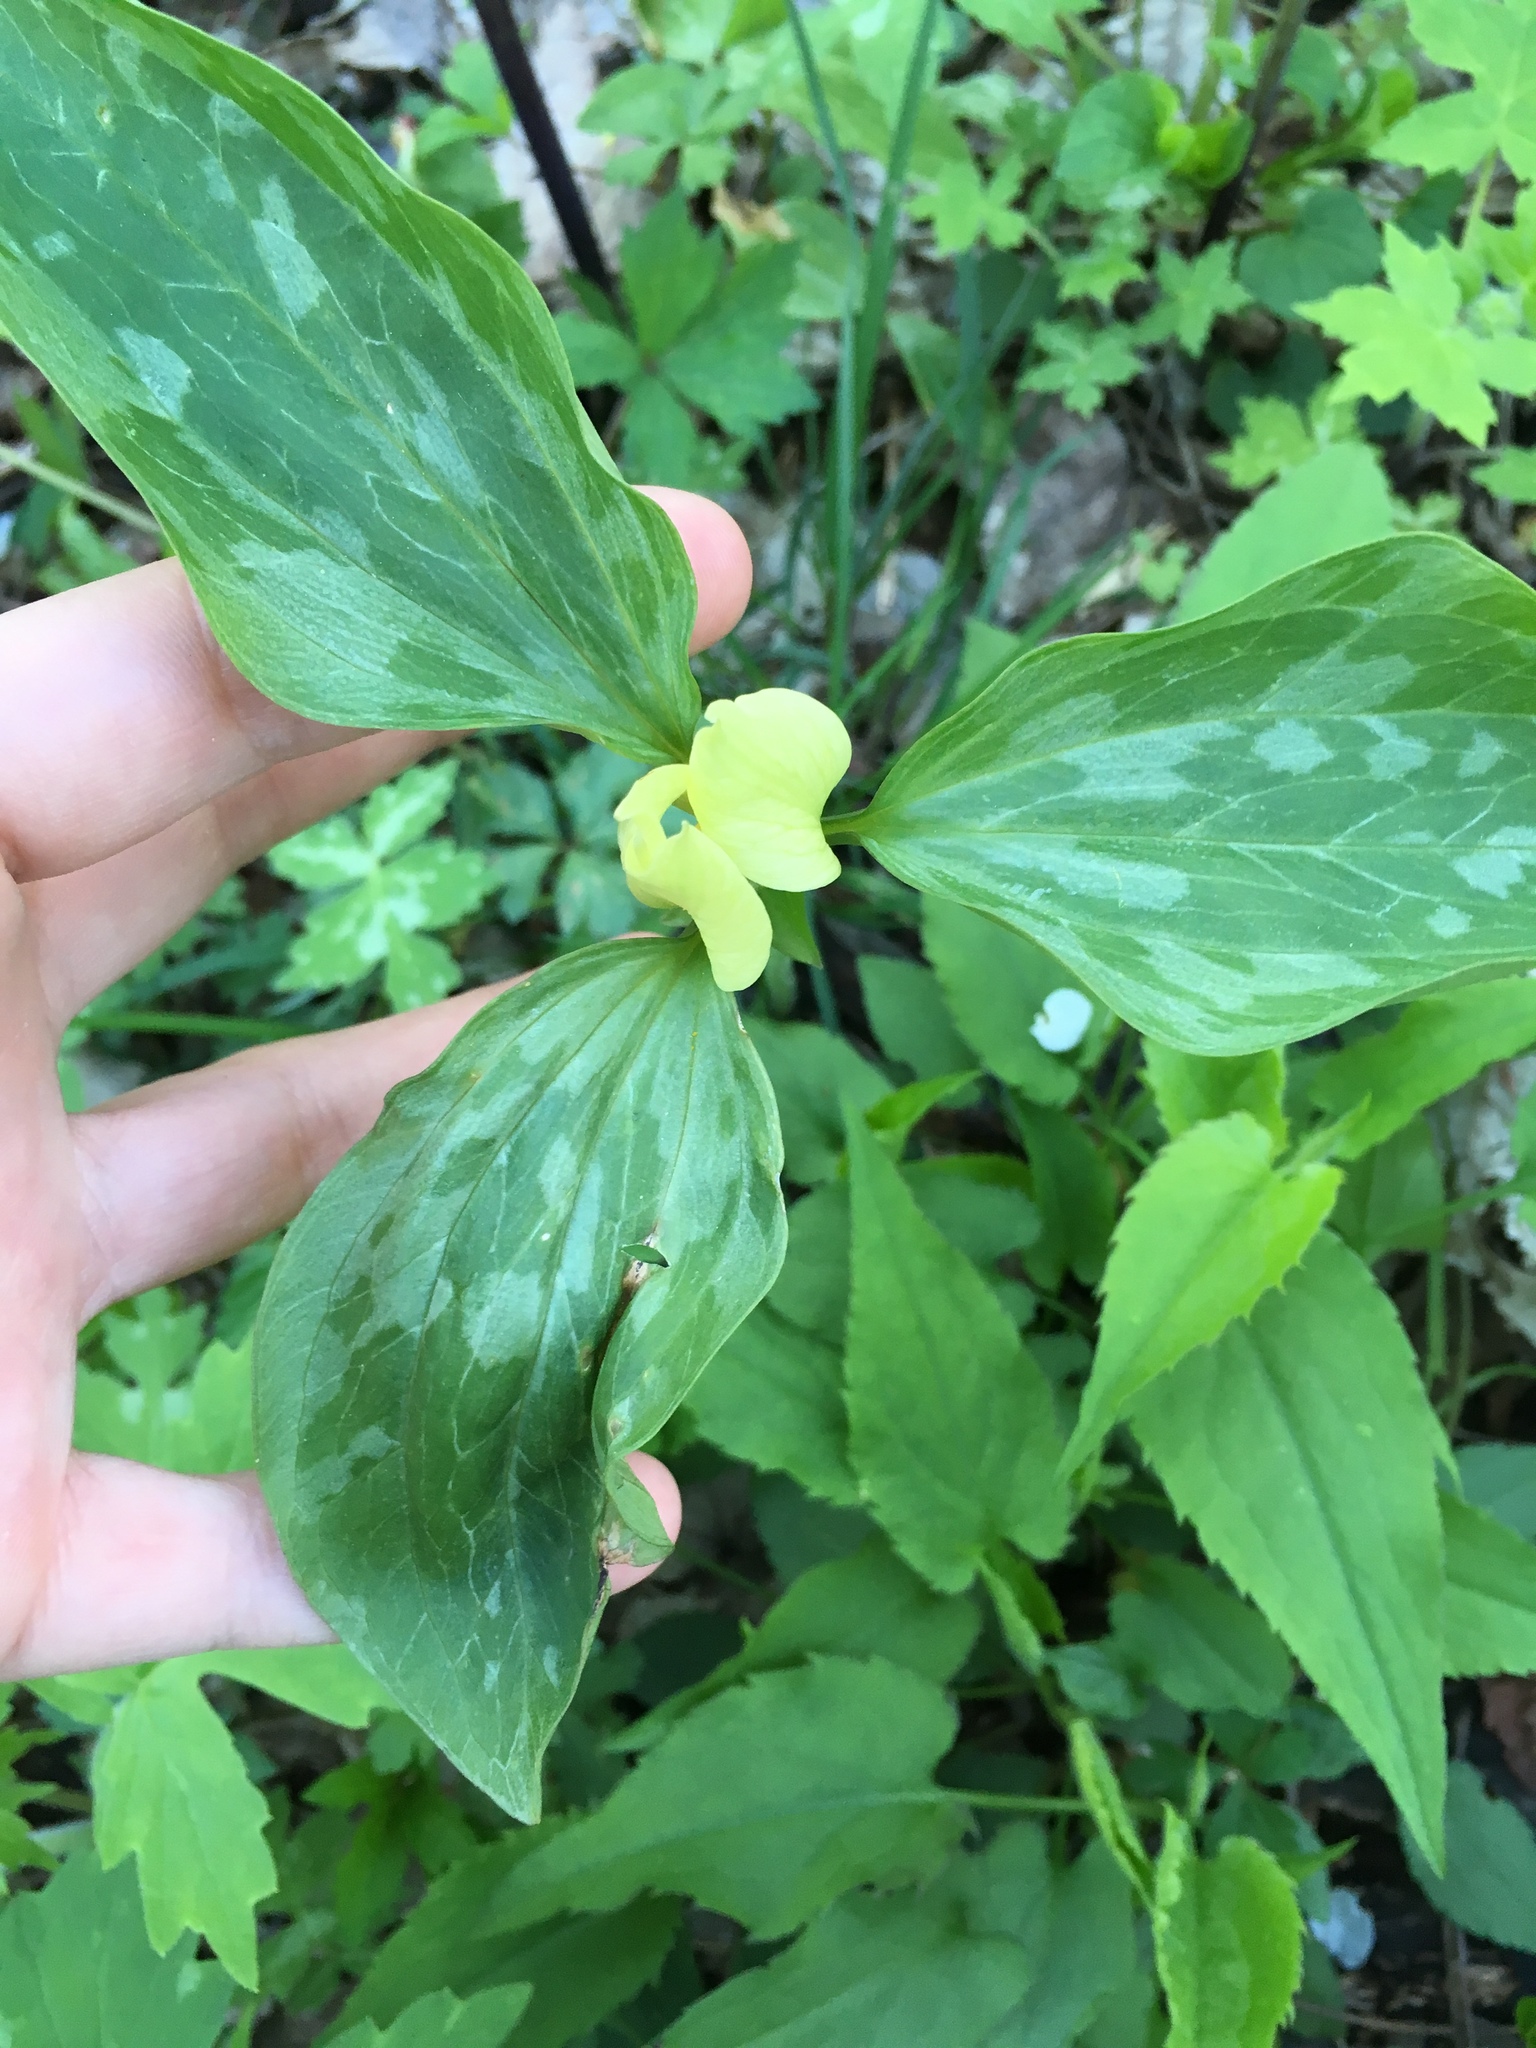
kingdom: Plantae
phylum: Tracheophyta
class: Liliopsida
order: Liliales
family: Melanthiaceae
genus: Trillium
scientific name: Trillium recurvatum
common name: Bloody butcher
